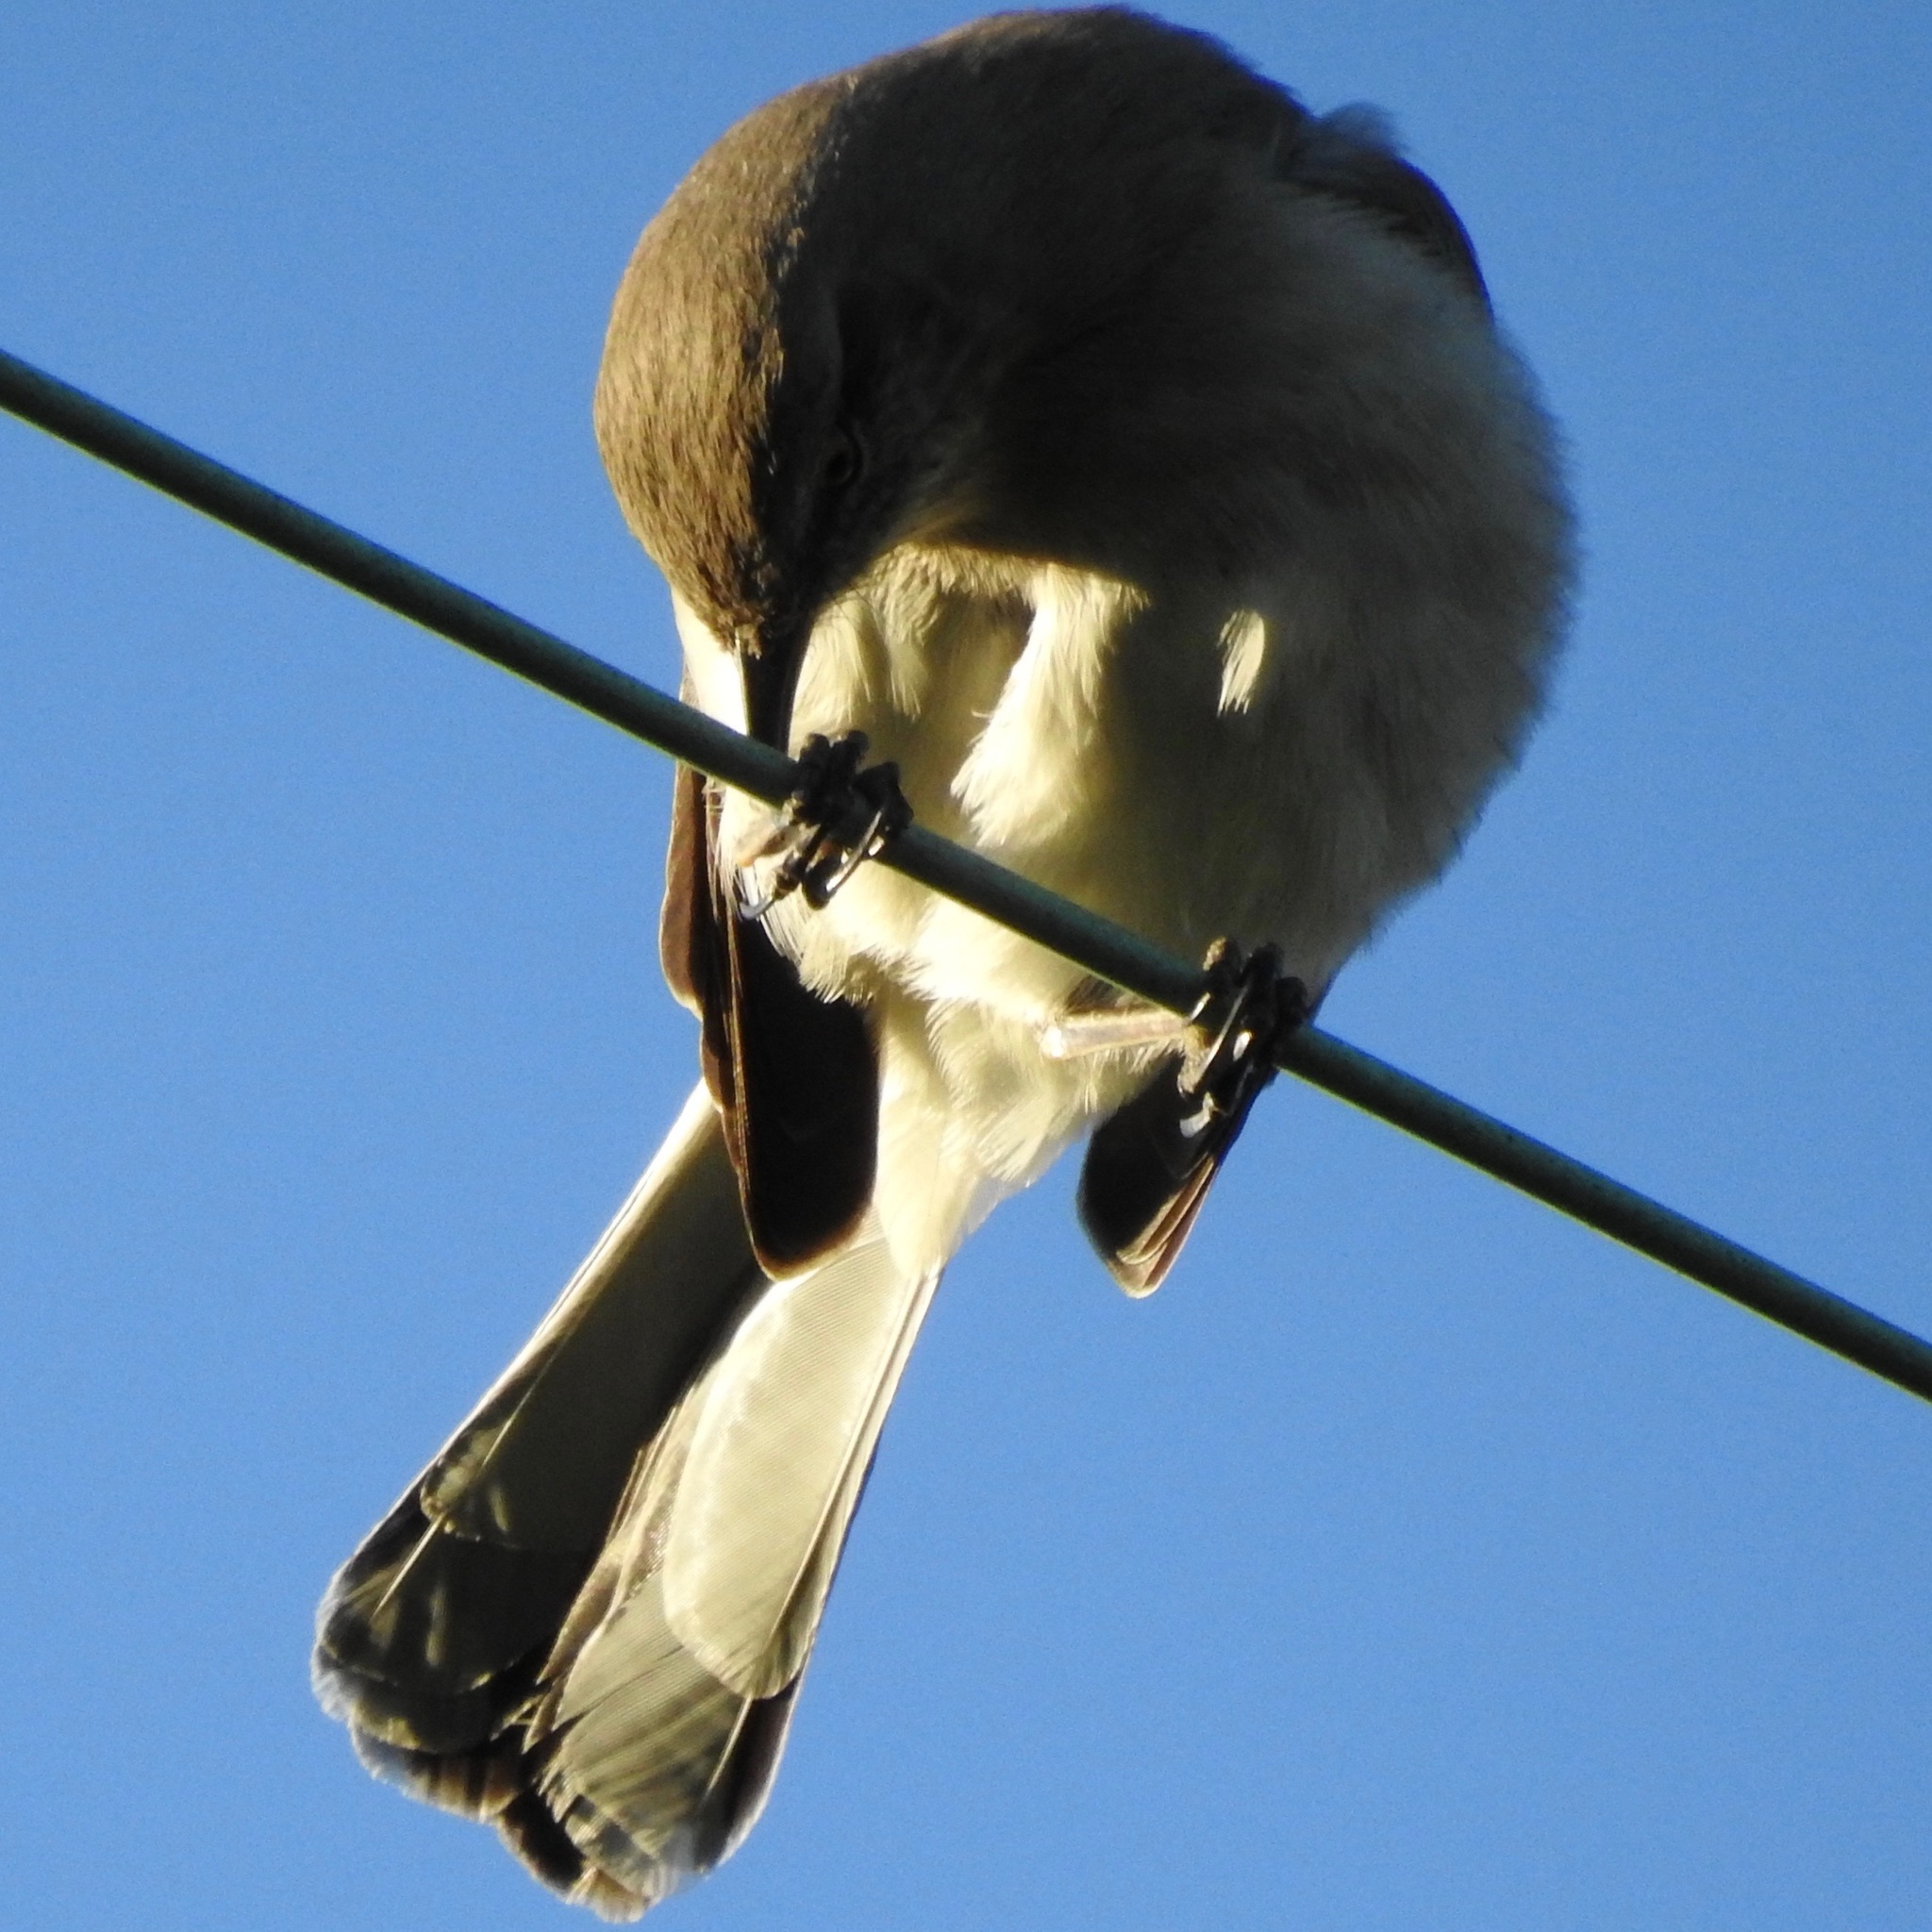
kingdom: Animalia
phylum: Chordata
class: Aves
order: Passeriformes
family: Mimidae
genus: Mimus
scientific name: Mimus polyglottos
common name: Northern mockingbird
